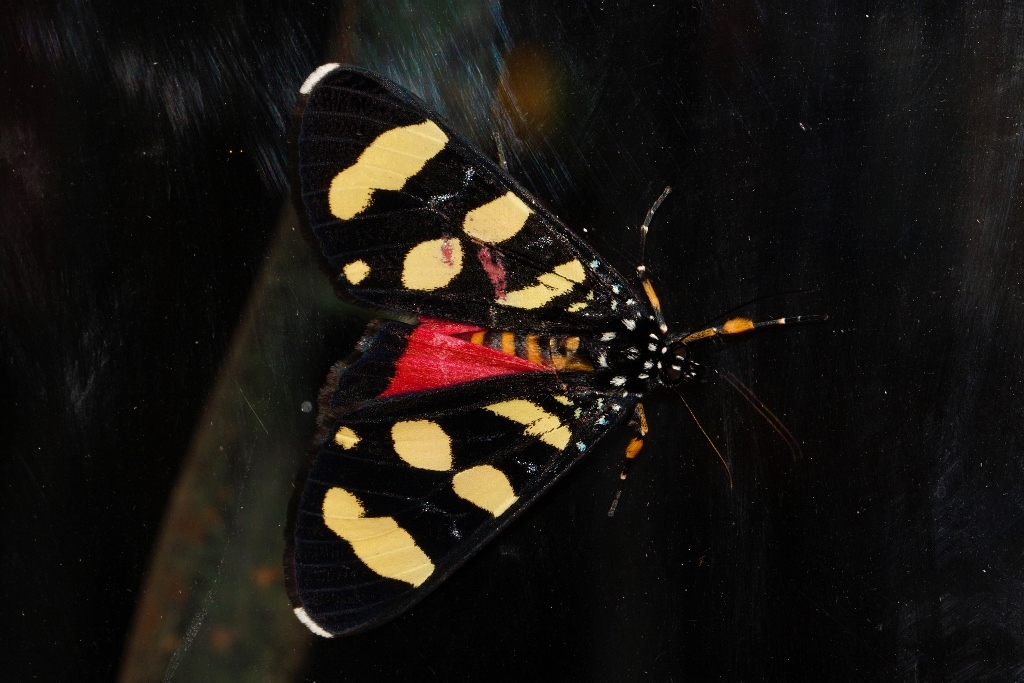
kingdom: Animalia
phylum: Arthropoda
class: Insecta
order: Lepidoptera
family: Noctuidae
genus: Heraclia
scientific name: Heraclia africana
